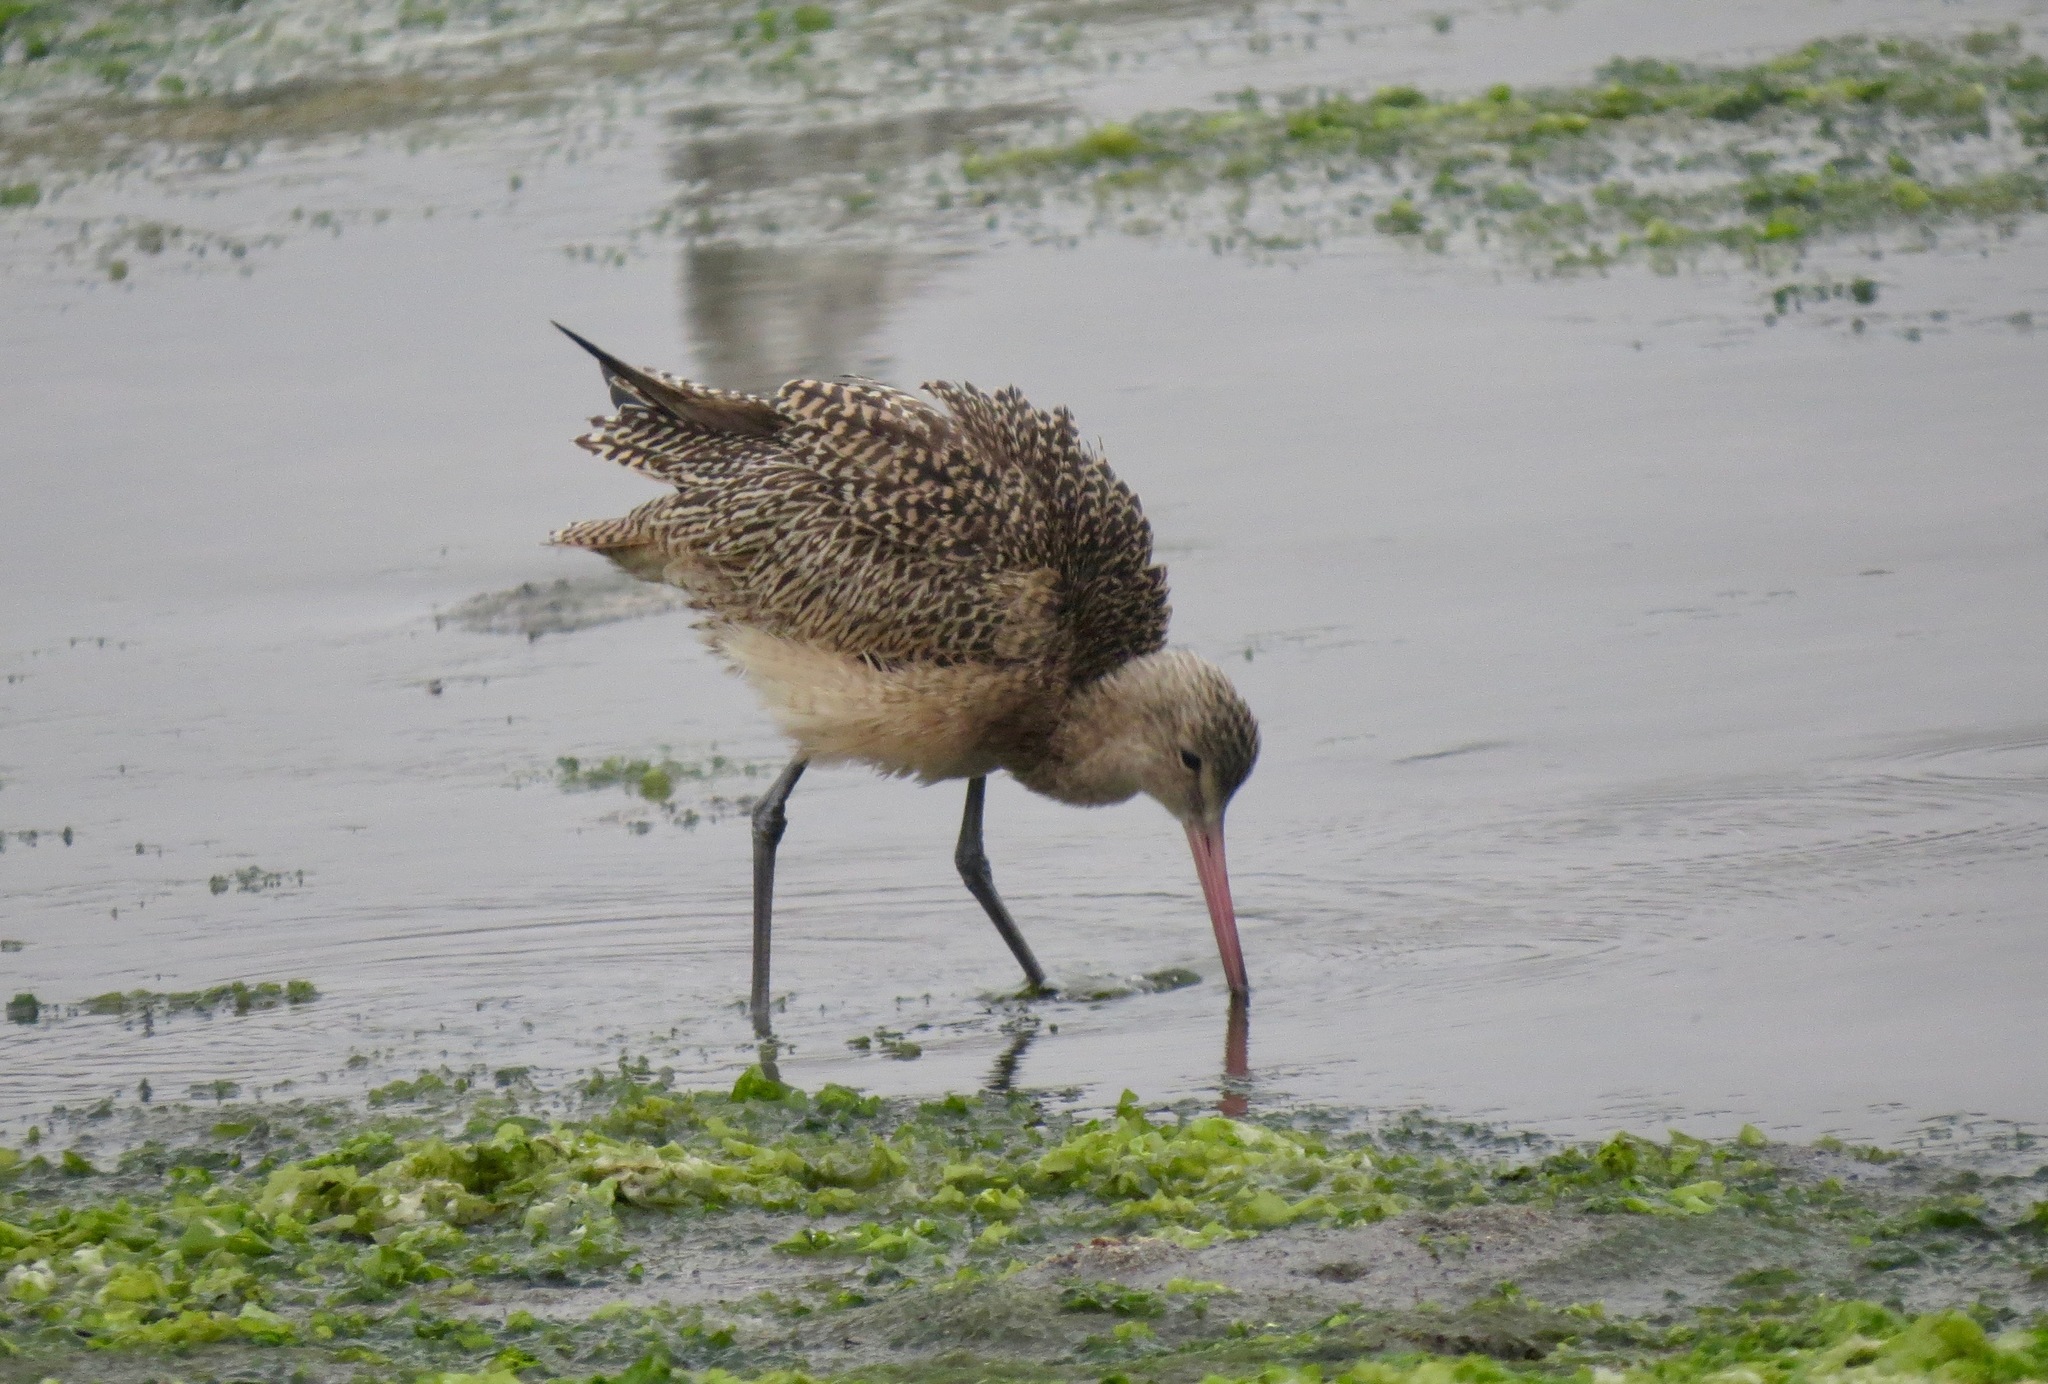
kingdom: Animalia
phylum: Chordata
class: Aves
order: Charadriiformes
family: Scolopacidae
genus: Limosa
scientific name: Limosa fedoa
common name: Marbled godwit
